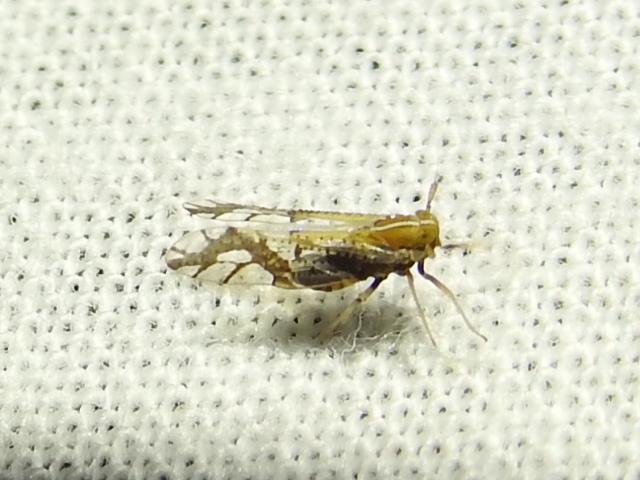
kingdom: Animalia
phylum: Arthropoda
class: Insecta
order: Hemiptera
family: Delphacidae
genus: Liburniella
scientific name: Liburniella ornata
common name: Ornate planthopper
